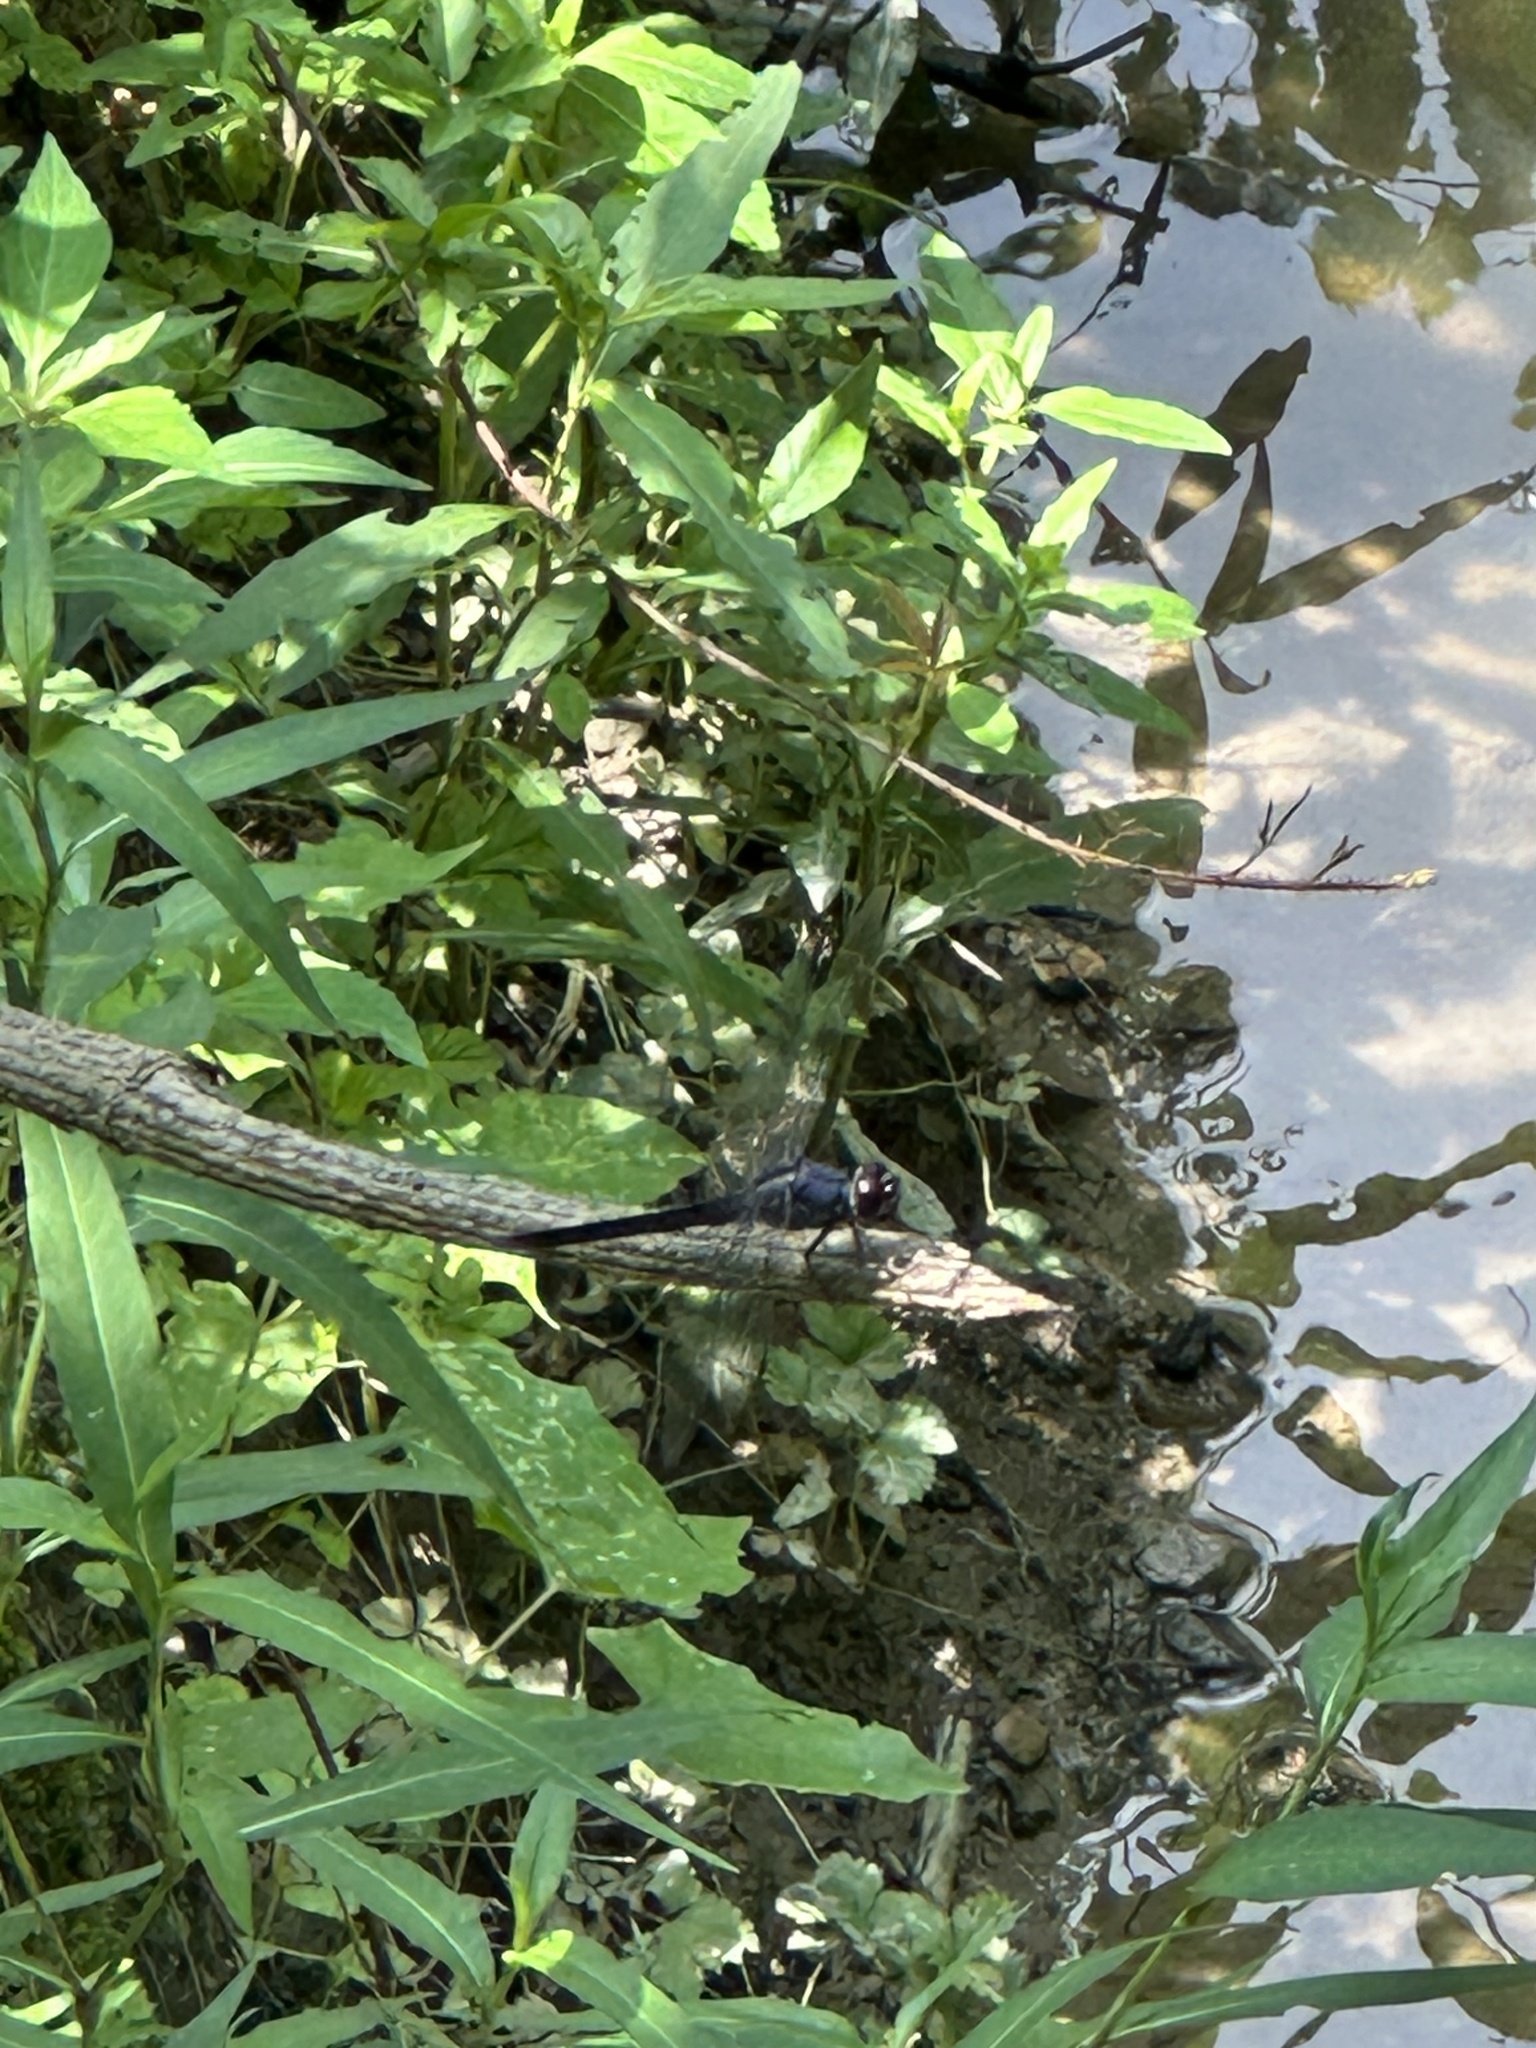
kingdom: Animalia
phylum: Arthropoda
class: Insecta
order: Odonata
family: Libellulidae
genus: Libellula
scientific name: Libellula incesta
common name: Slaty skimmer
